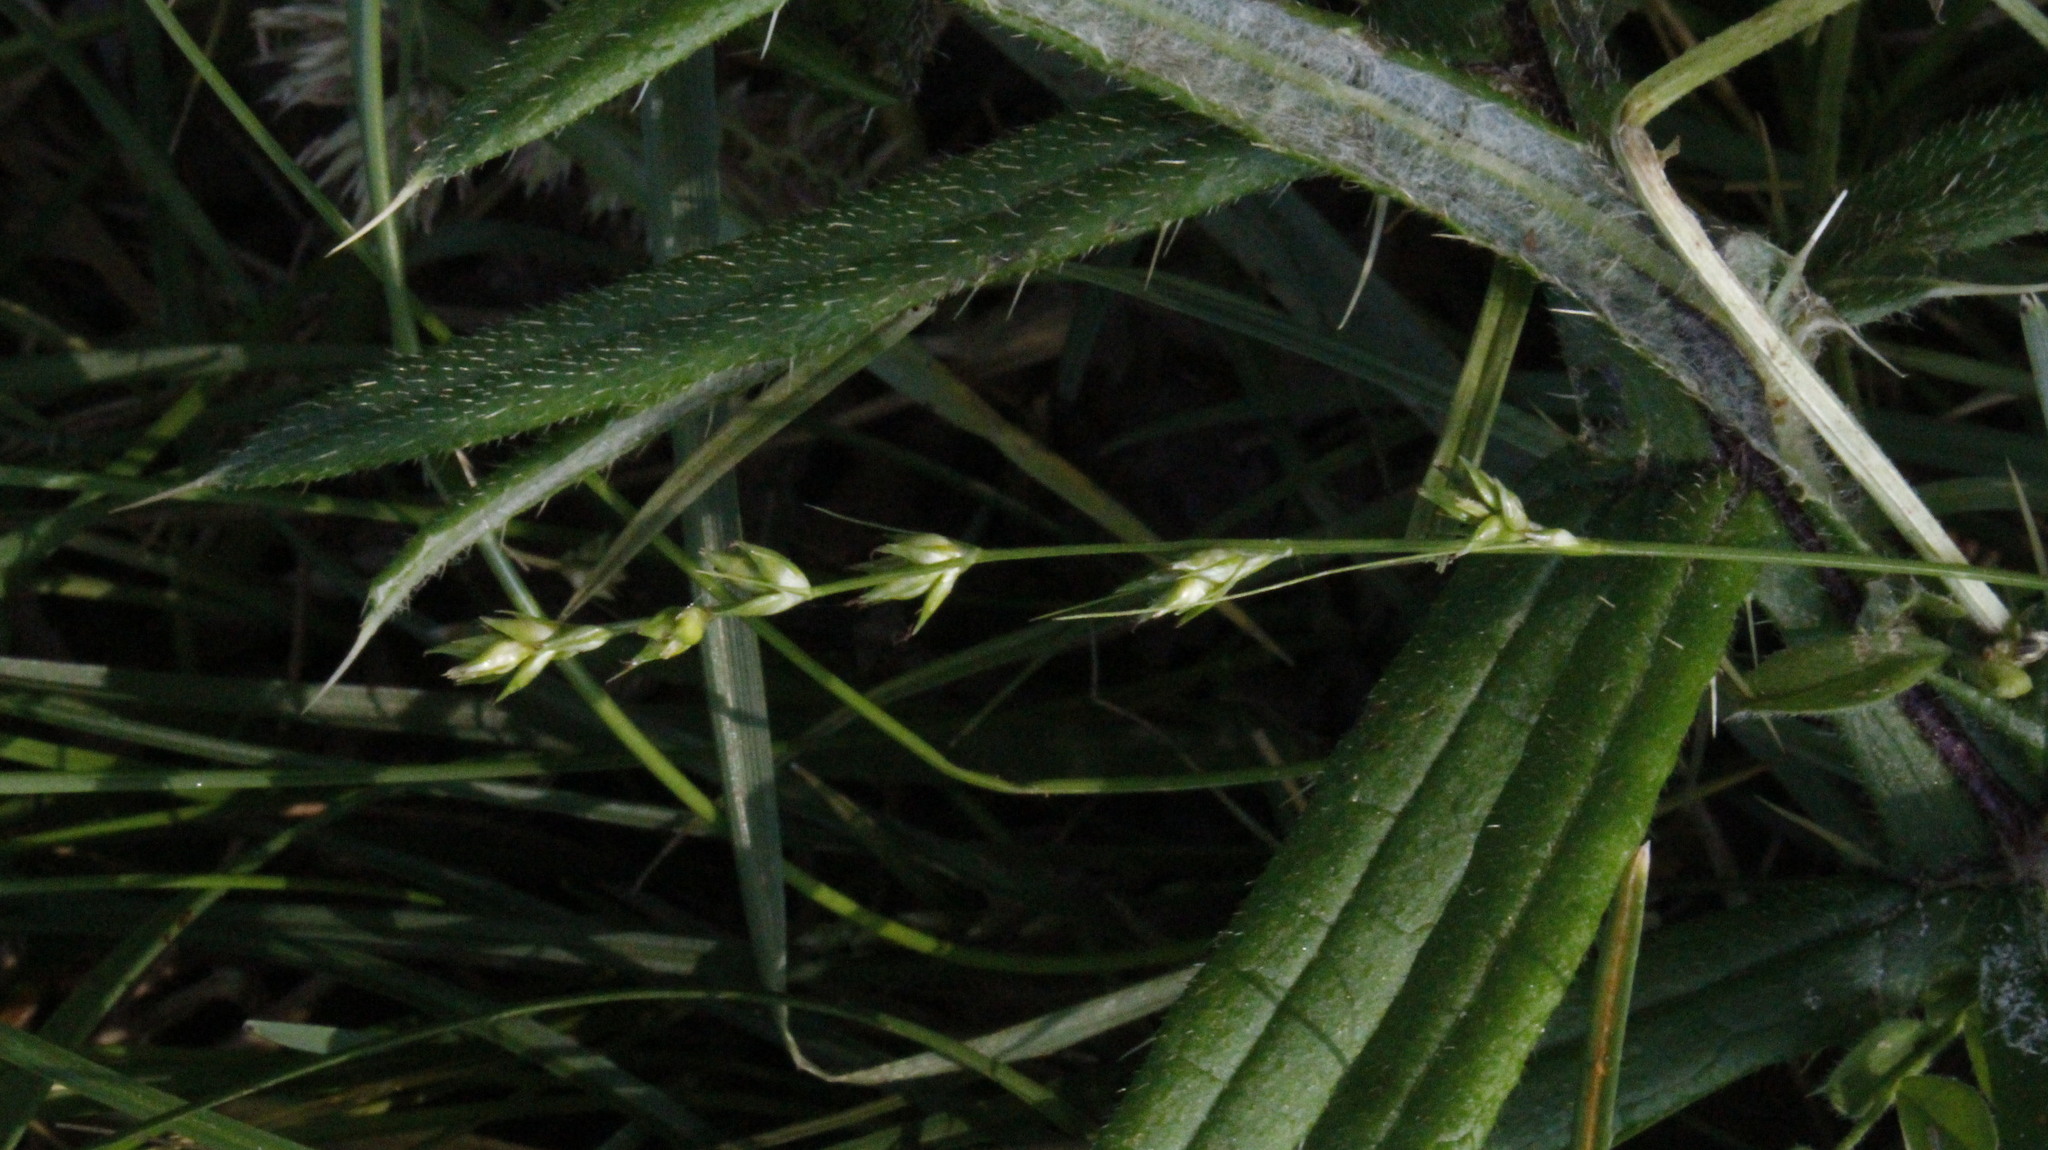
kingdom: Plantae
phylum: Tracheophyta
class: Liliopsida
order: Poales
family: Cyperaceae
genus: Carex
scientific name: Carex divulsa
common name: Grassland sedge
